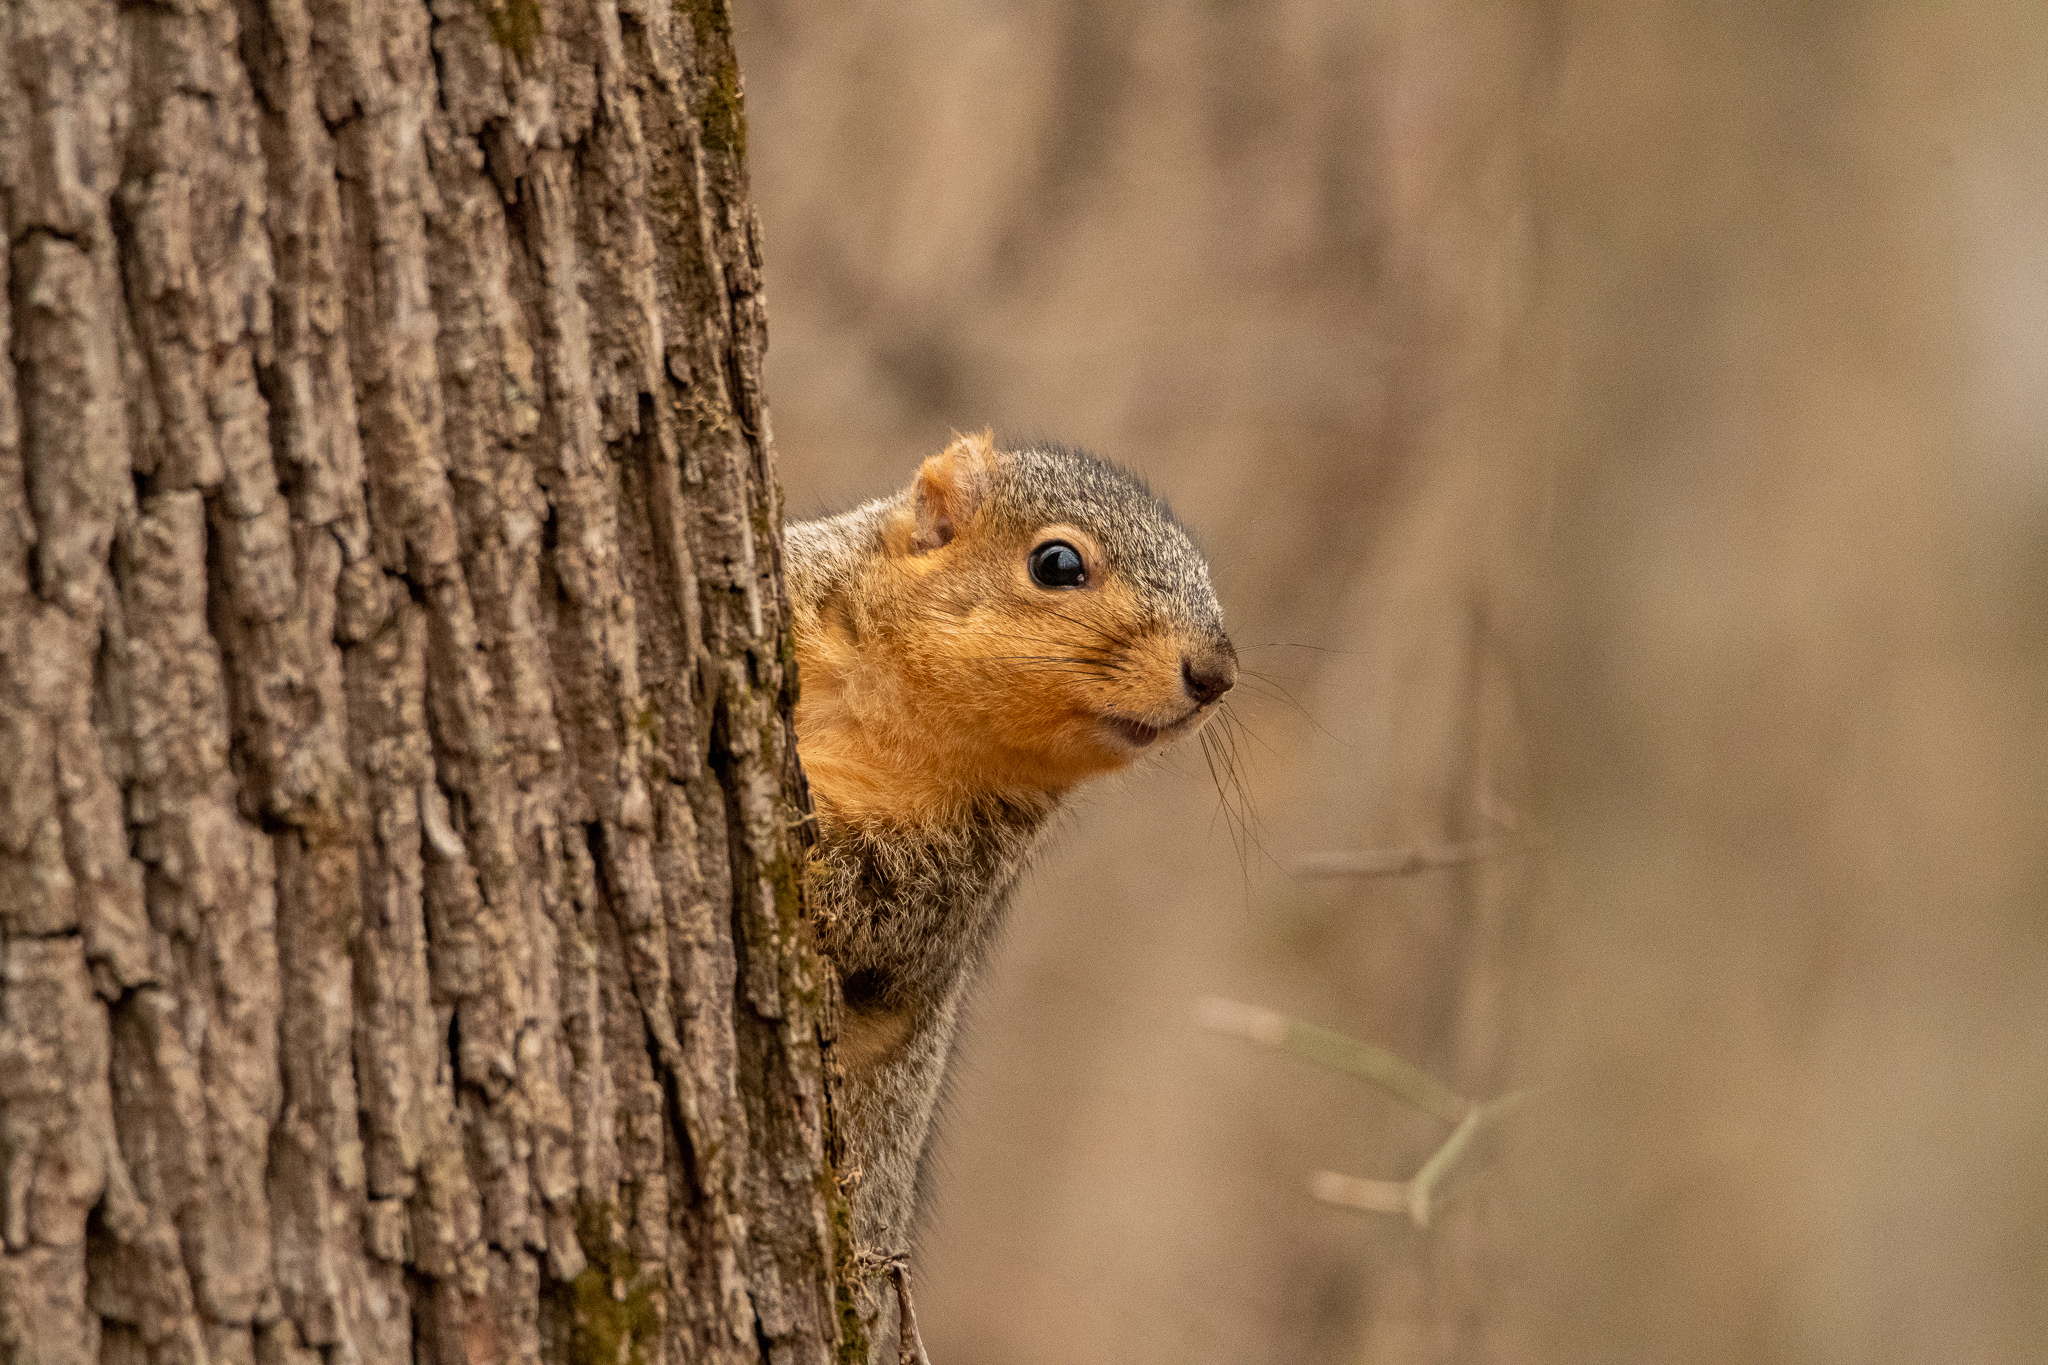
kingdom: Animalia
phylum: Chordata
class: Mammalia
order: Rodentia
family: Sciuridae
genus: Sciurus
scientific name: Sciurus niger
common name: Fox squirrel
